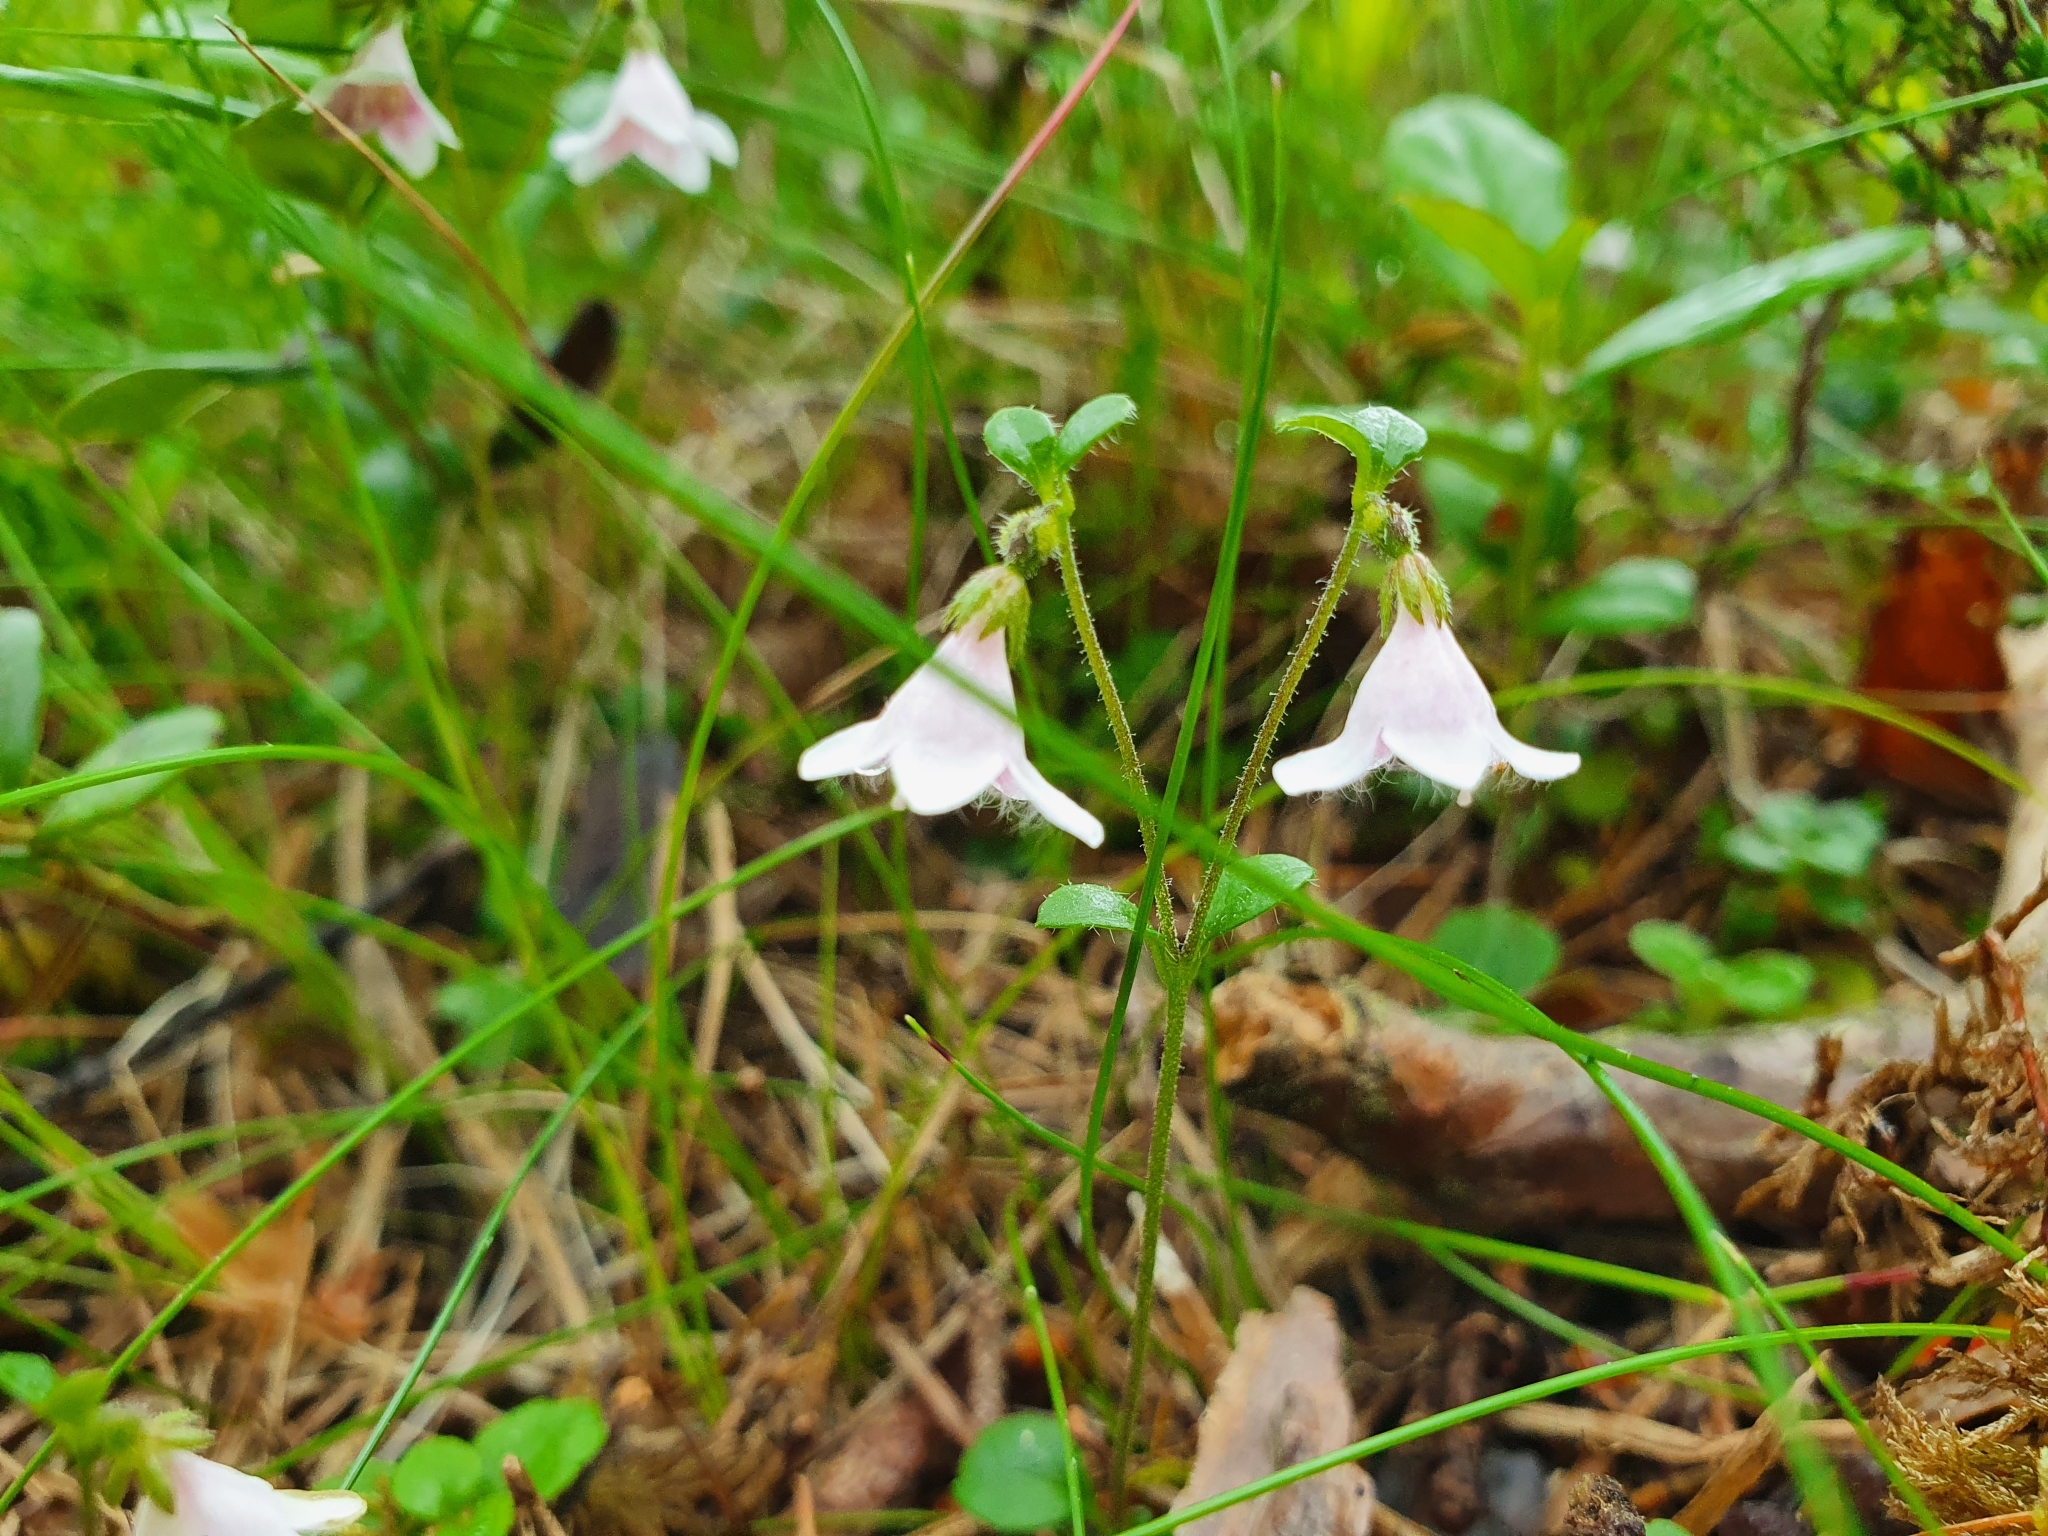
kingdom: Plantae
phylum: Tracheophyta
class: Magnoliopsida
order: Dipsacales
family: Caprifoliaceae
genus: Linnaea
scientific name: Linnaea borealis
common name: Twinflower
